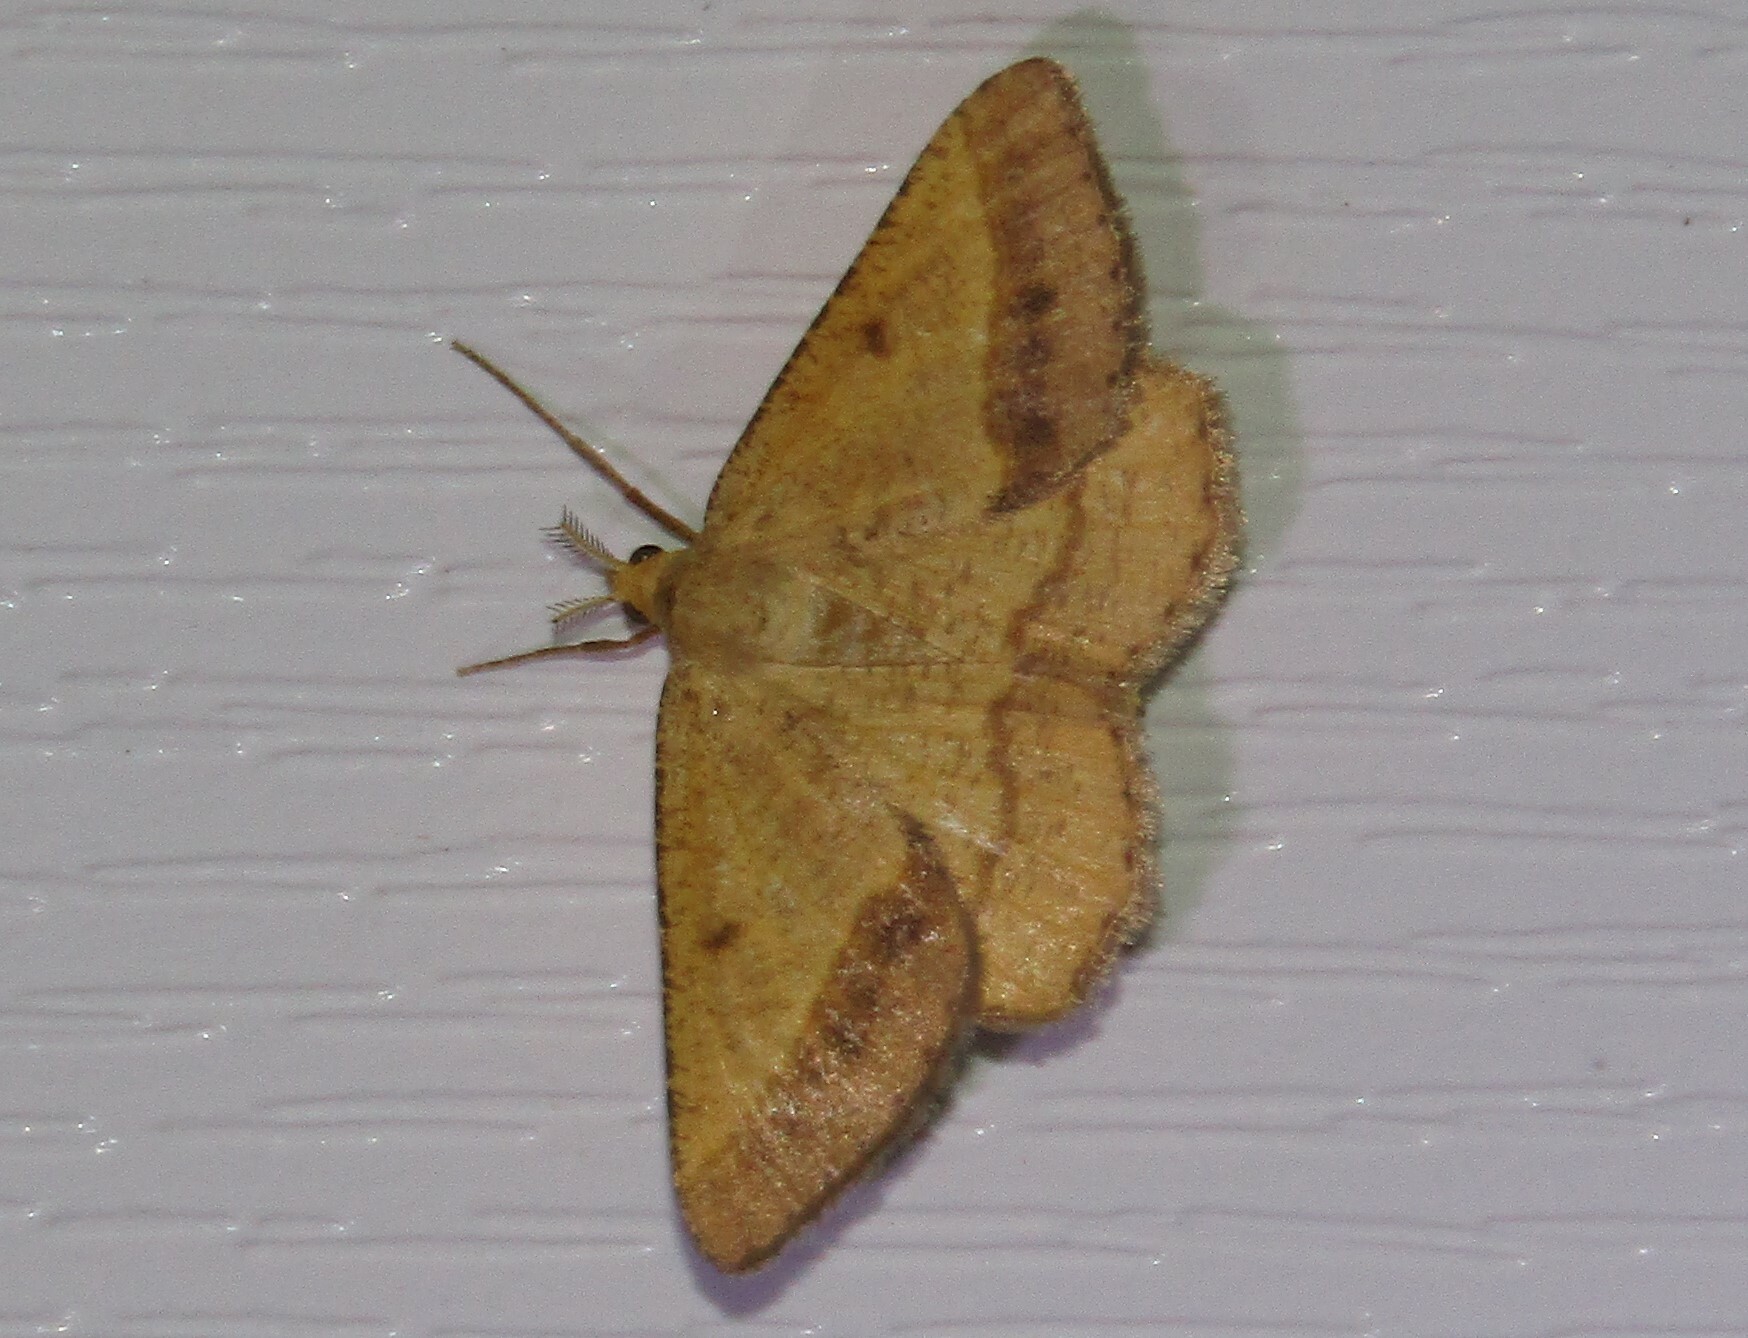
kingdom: Animalia
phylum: Arthropoda
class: Insecta
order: Lepidoptera
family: Geometridae
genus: Tephrina
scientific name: Tephrina arenacearia
